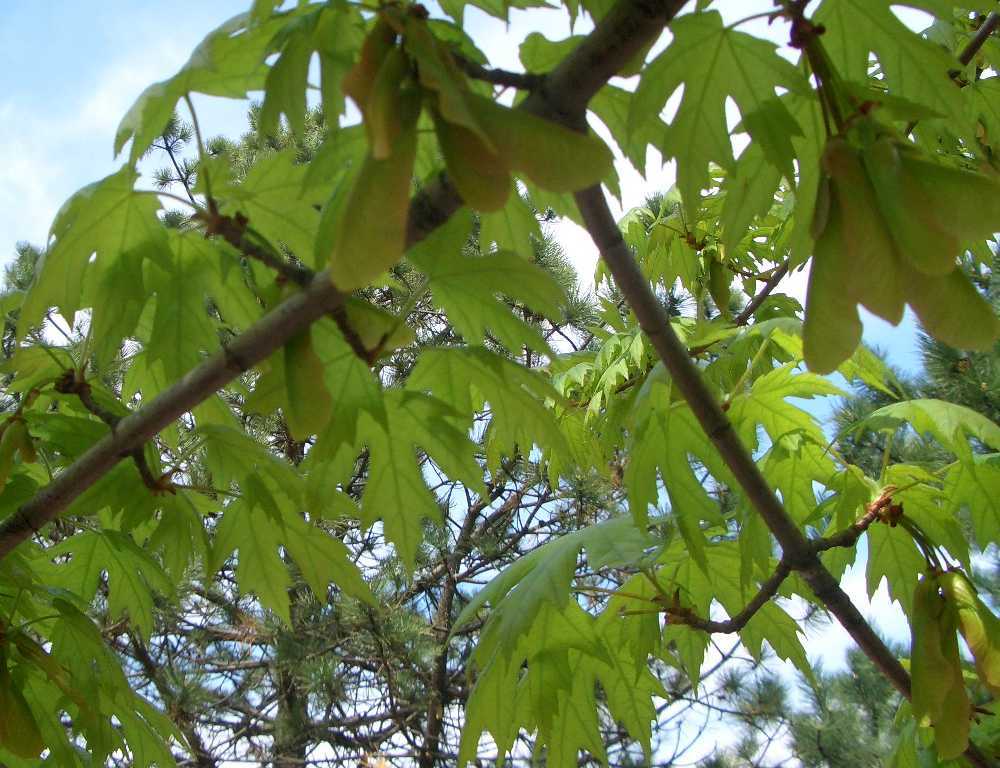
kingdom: Plantae
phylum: Tracheophyta
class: Magnoliopsida
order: Sapindales
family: Sapindaceae
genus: Acer
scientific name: Acer saccharinum
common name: Silver maple
